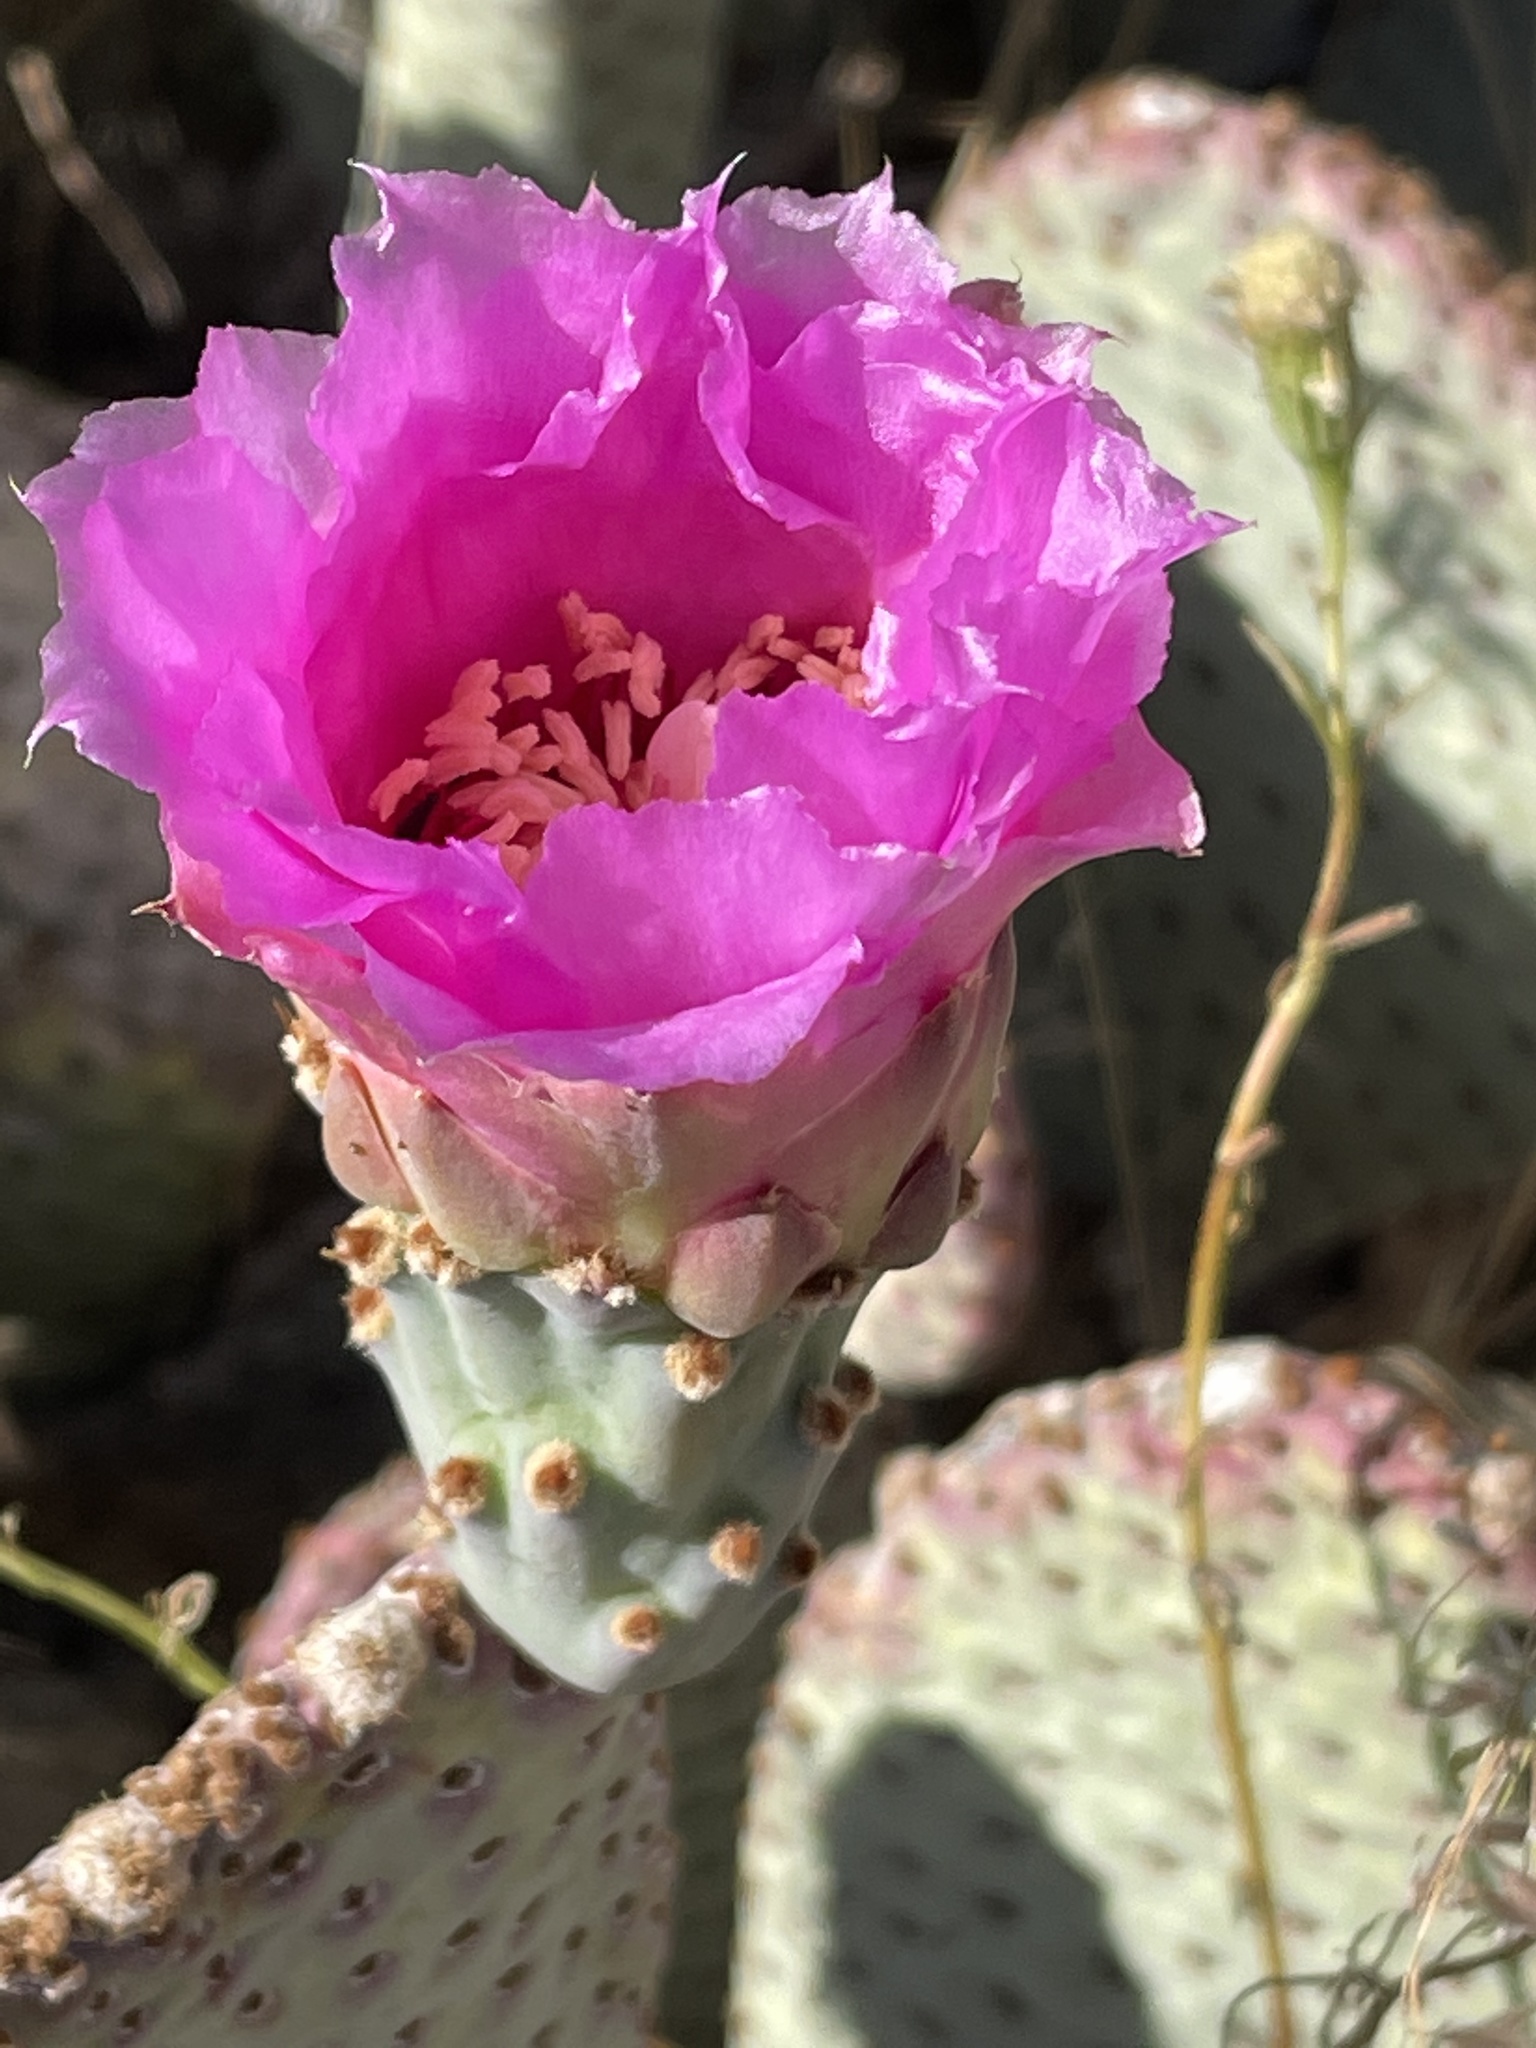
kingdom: Plantae
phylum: Tracheophyta
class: Magnoliopsida
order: Caryophyllales
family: Cactaceae
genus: Opuntia
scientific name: Opuntia basilaris
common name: Beavertail prickly-pear
